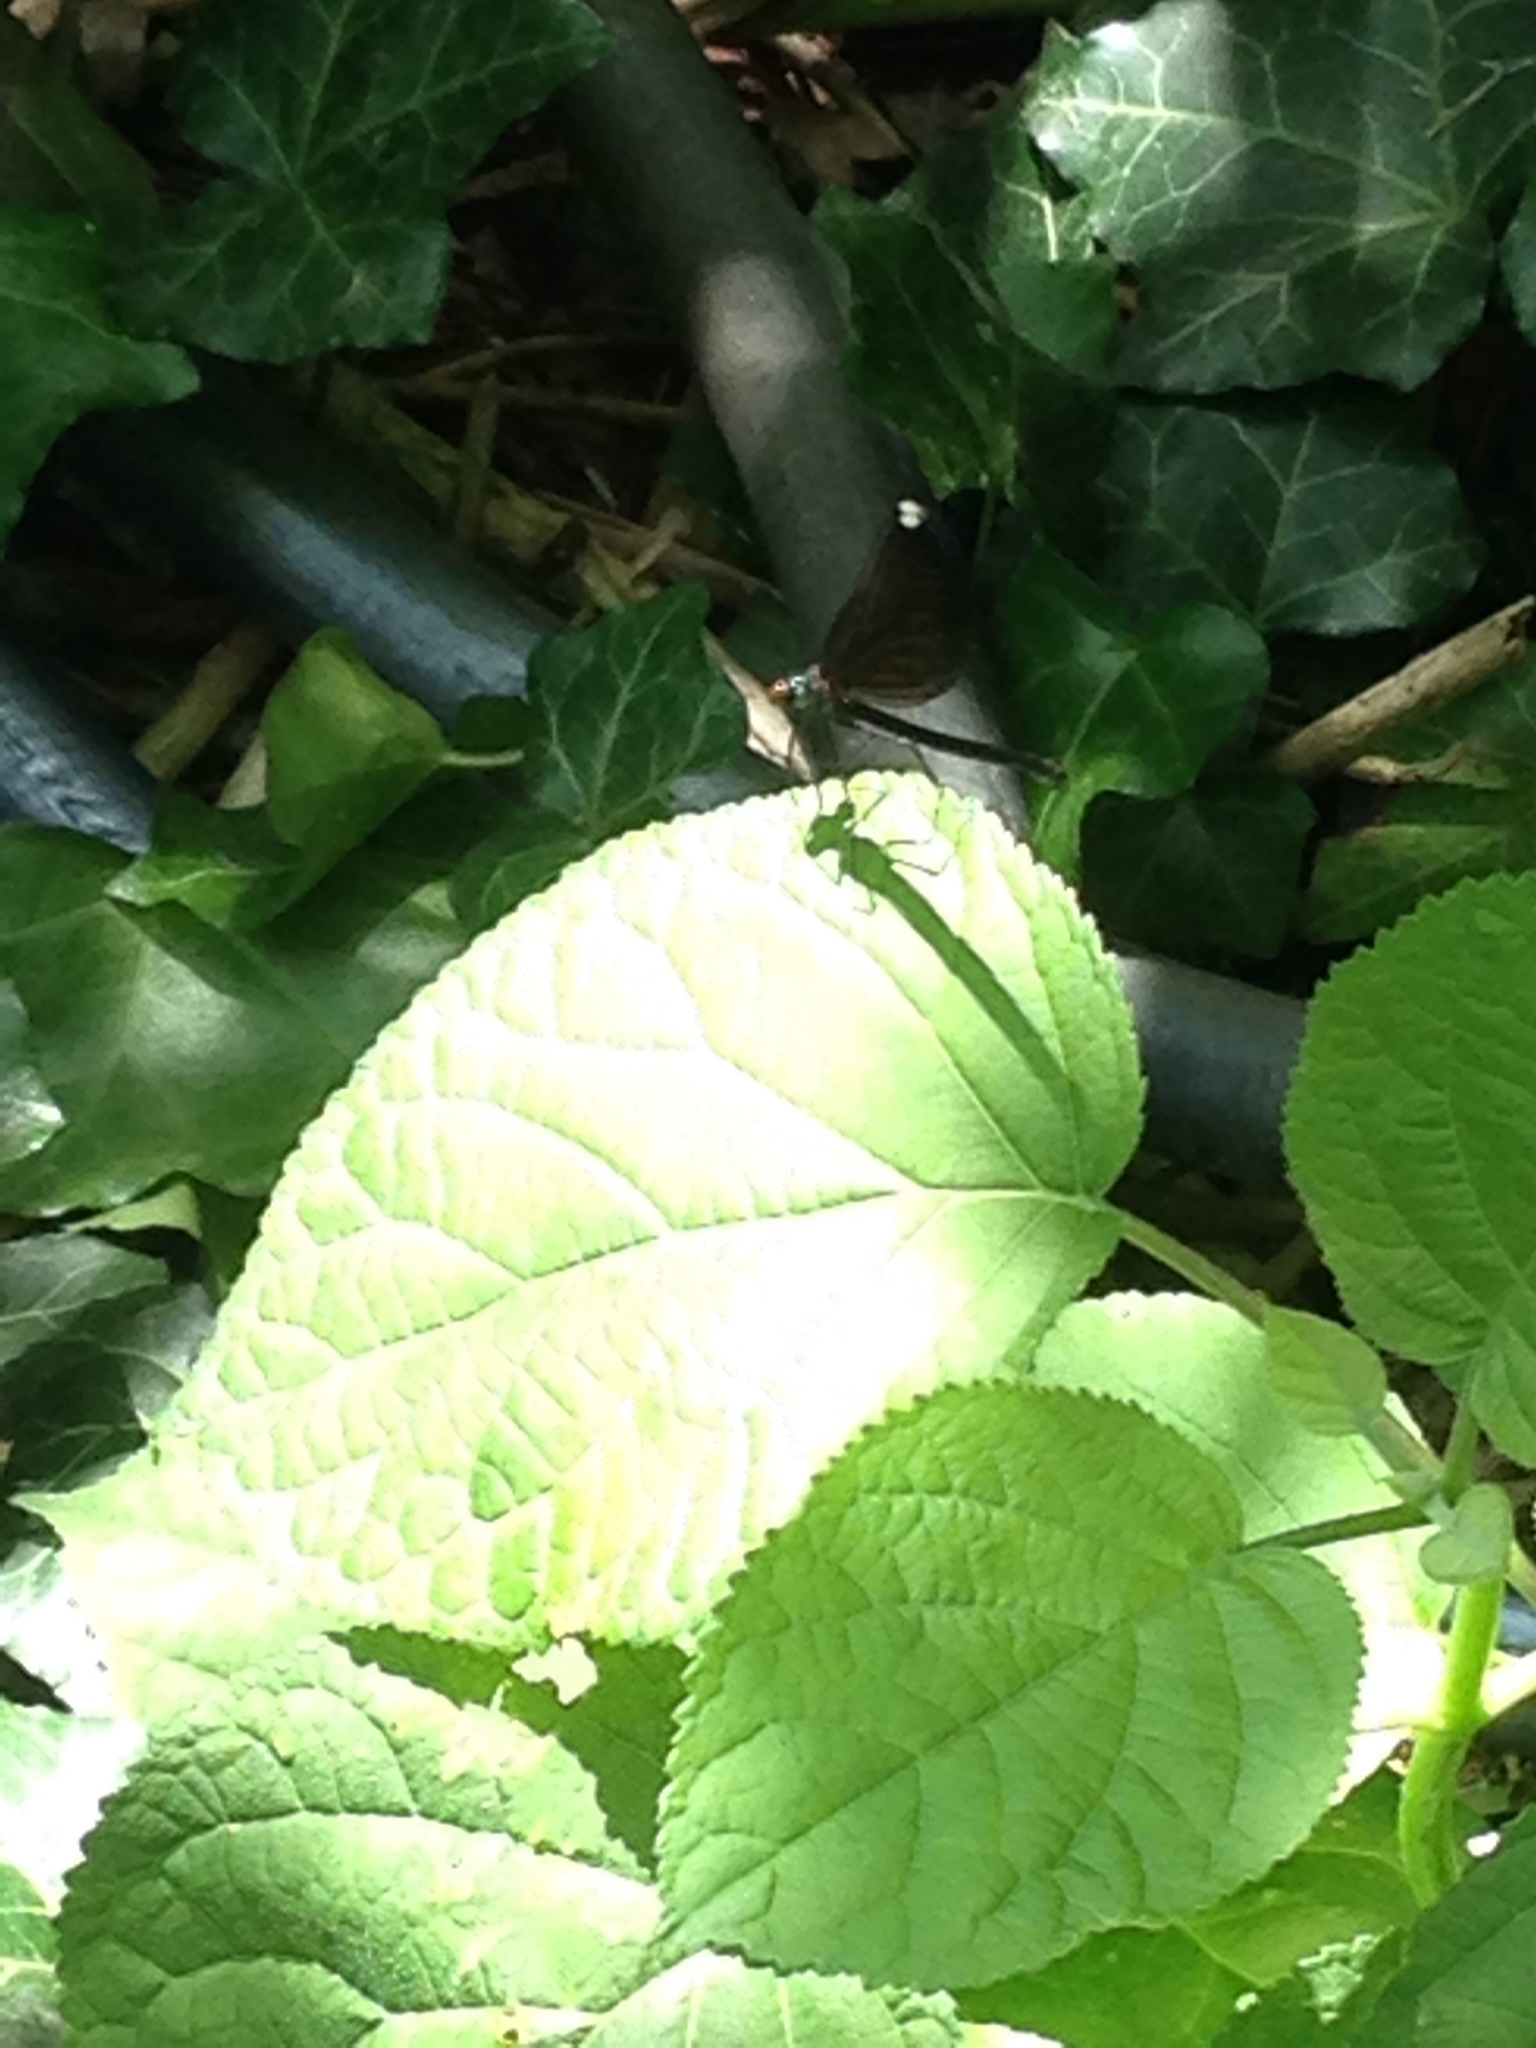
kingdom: Animalia
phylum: Arthropoda
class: Insecta
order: Odonata
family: Calopterygidae
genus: Calopteryx
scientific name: Calopteryx maculata
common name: Ebony jewelwing
